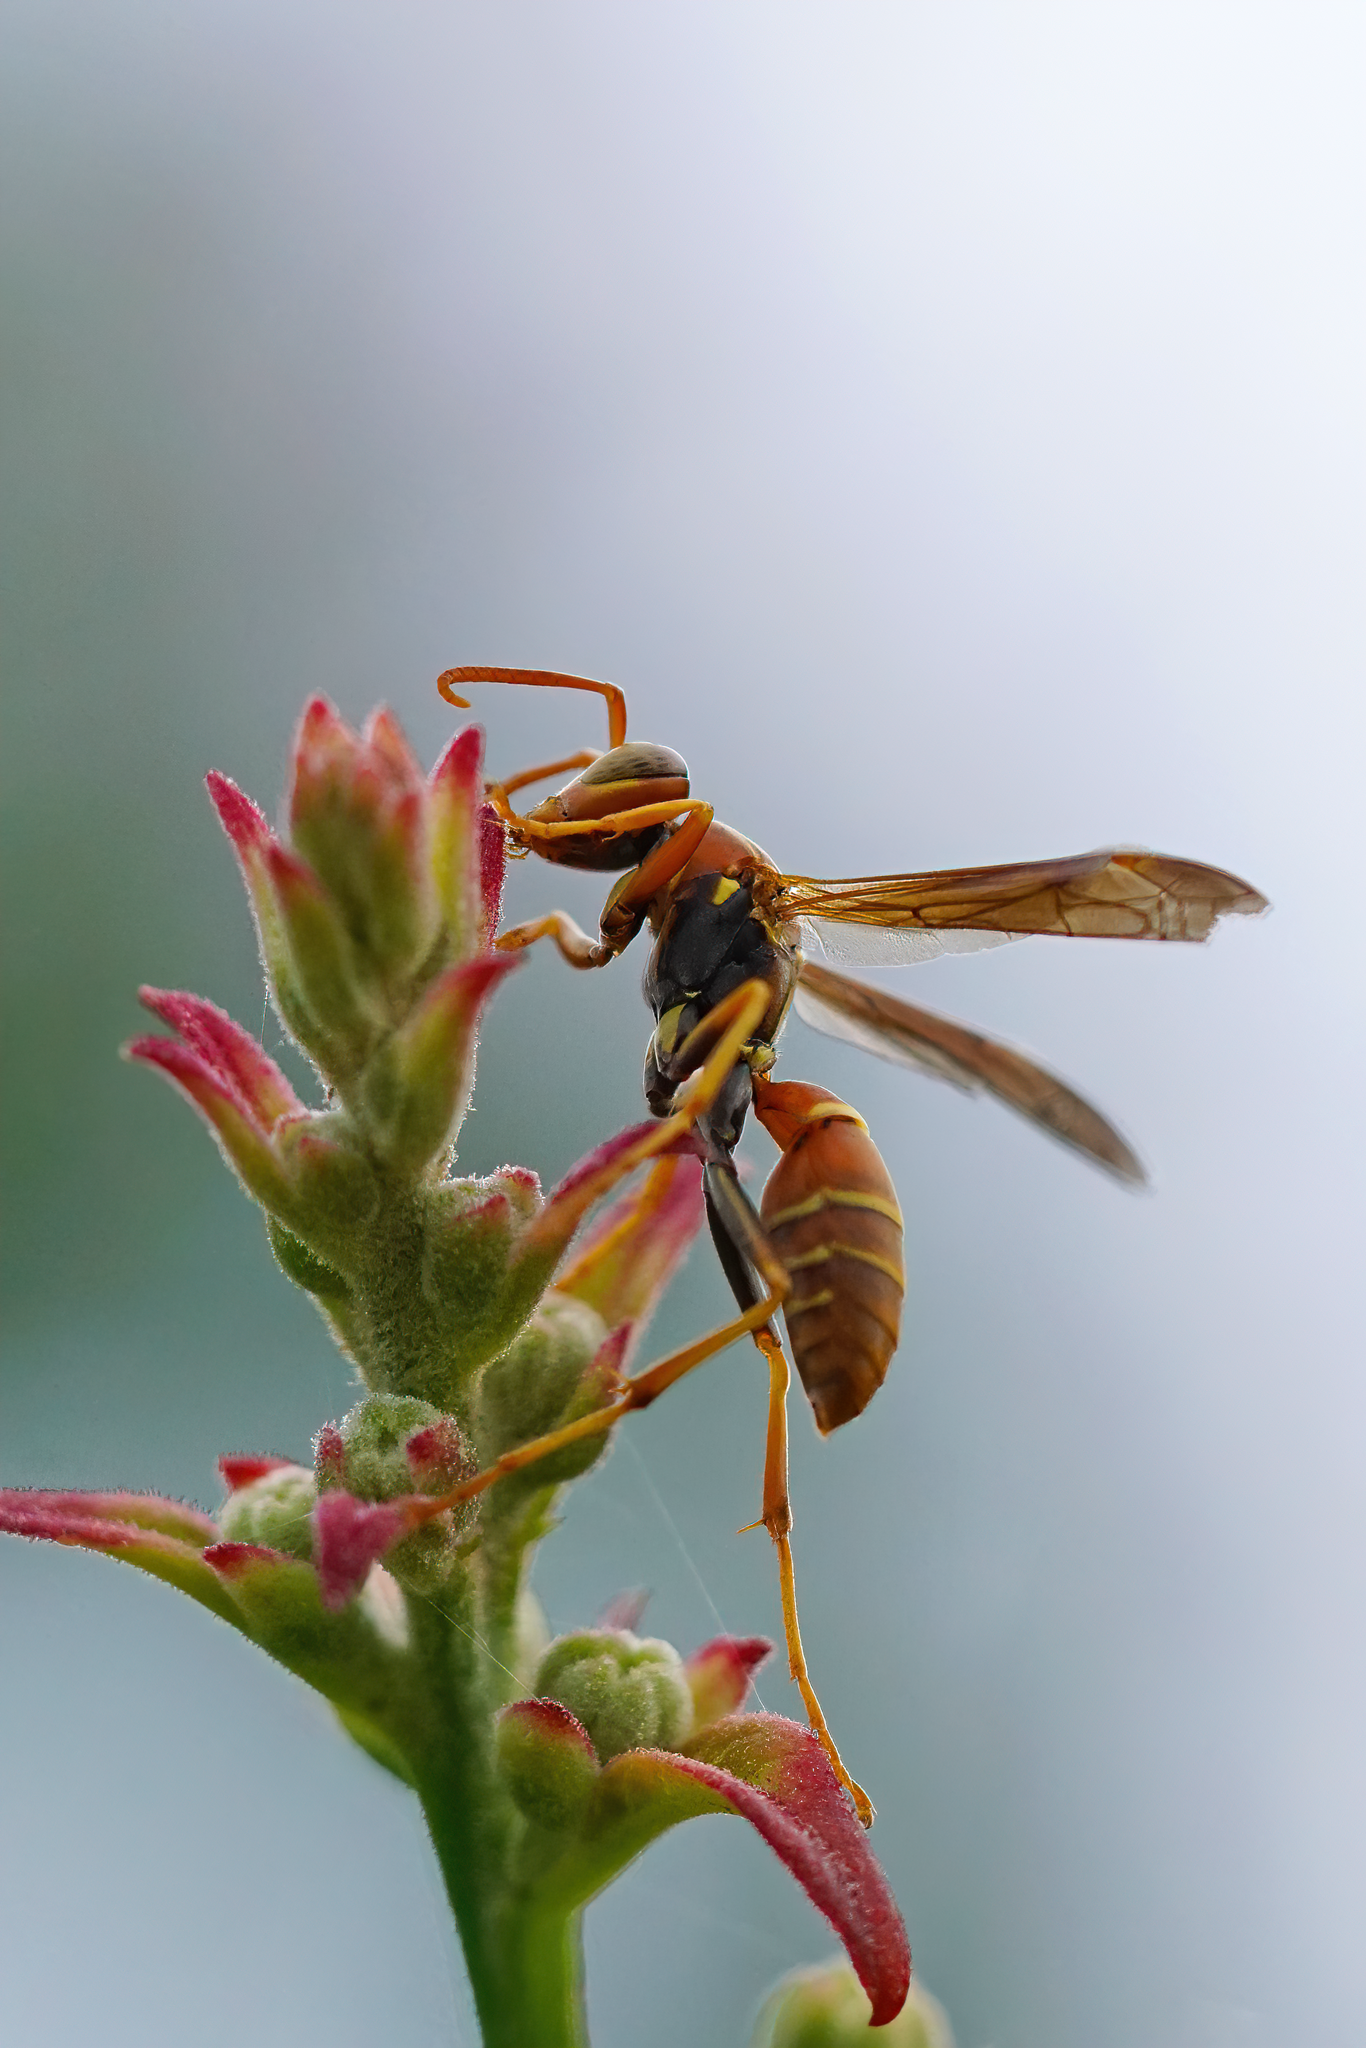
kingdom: Animalia
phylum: Arthropoda
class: Insecta
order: Hymenoptera
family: Eumenidae
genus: Polistes
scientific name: Polistes dorsalis
